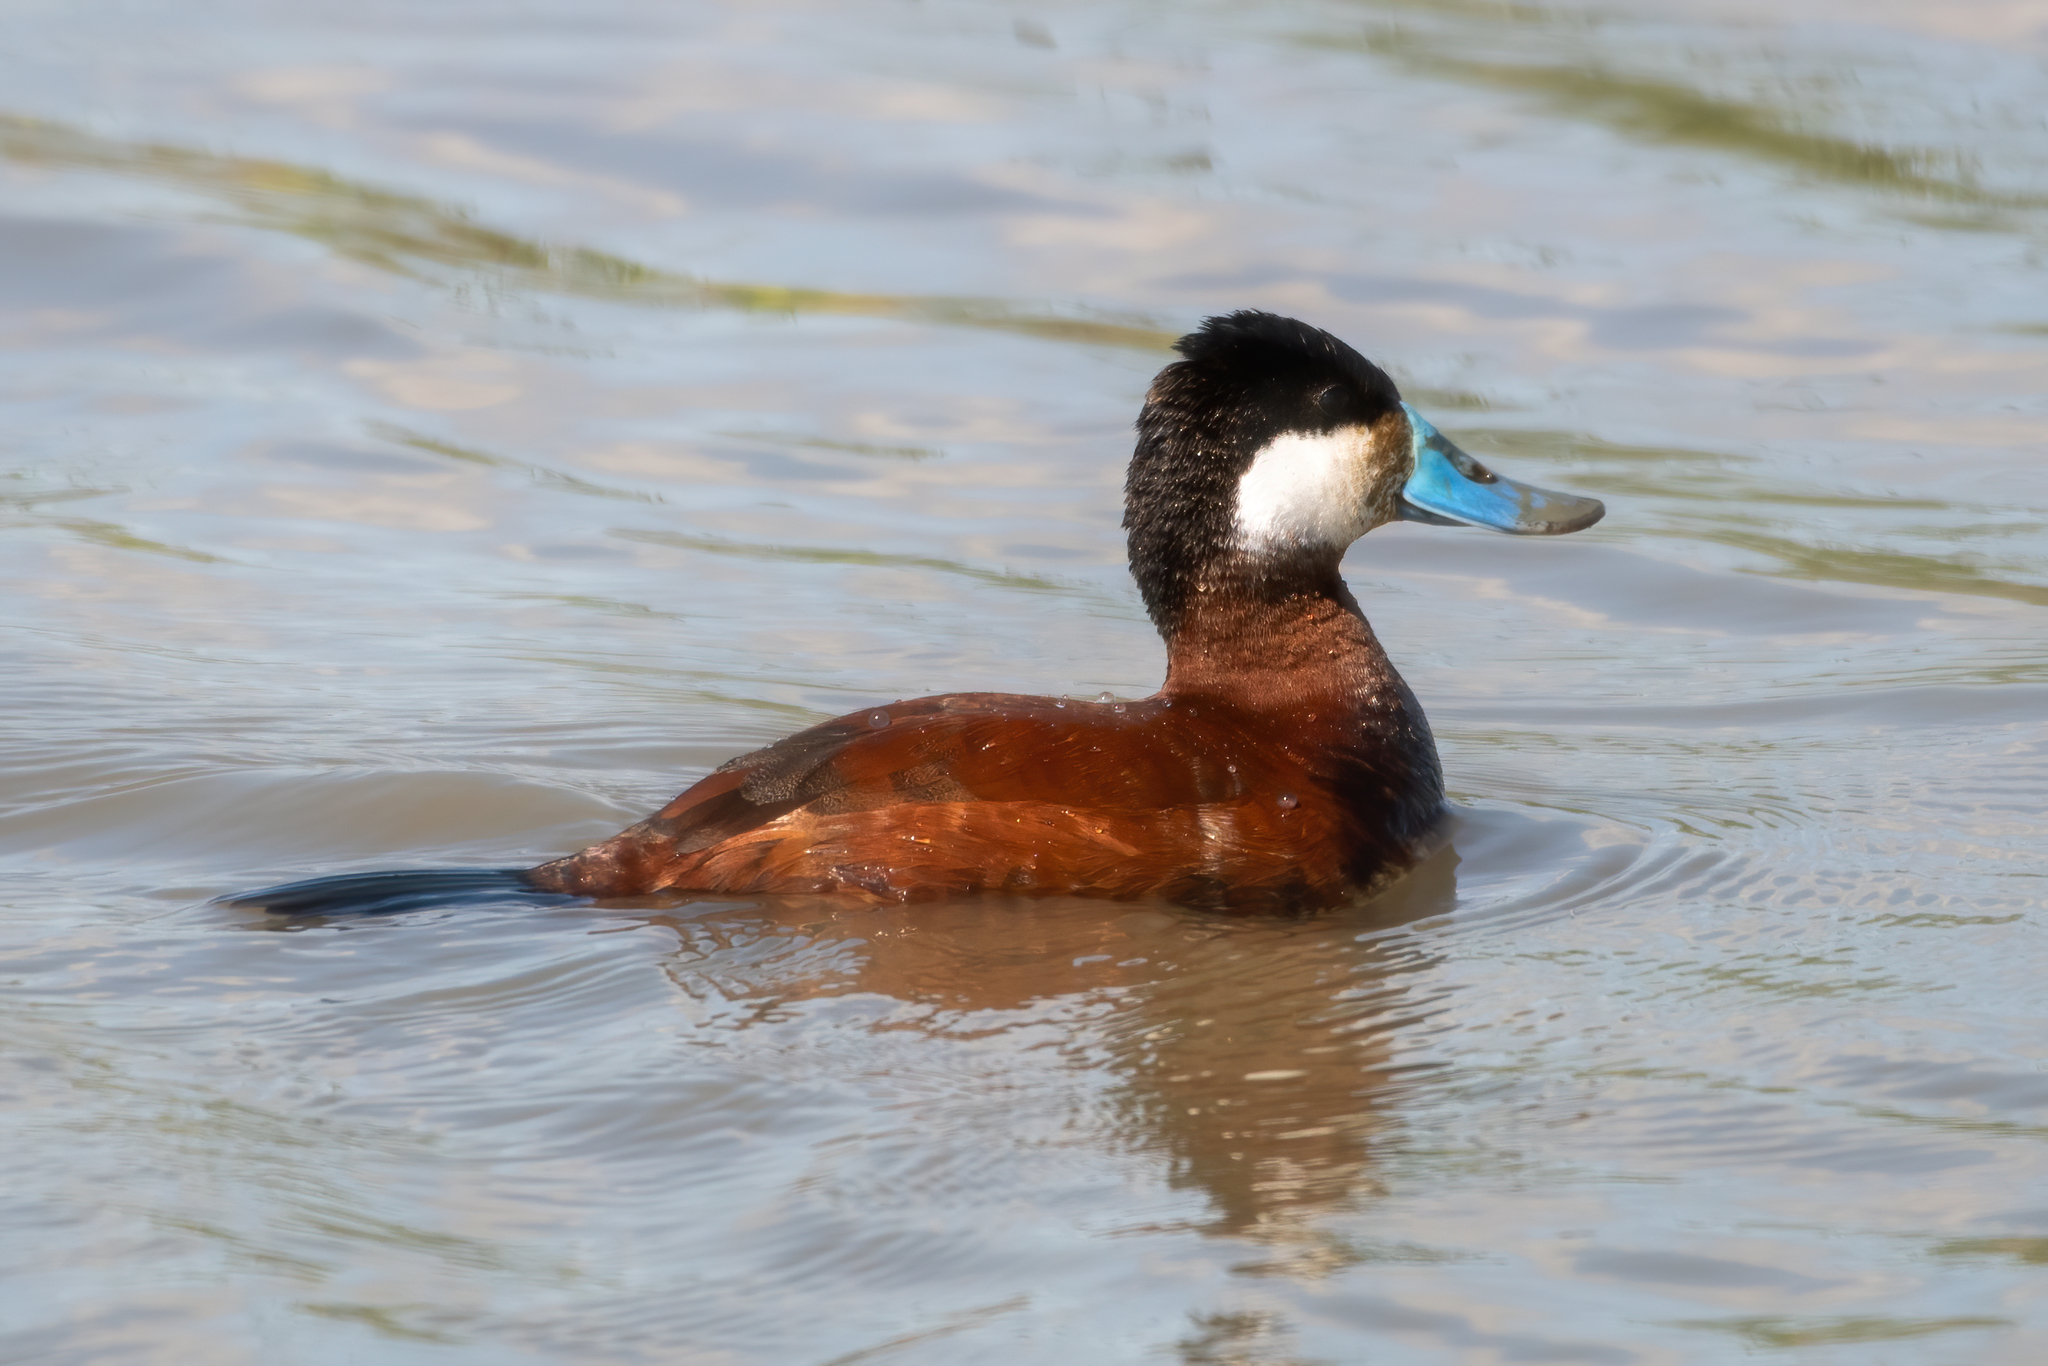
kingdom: Animalia
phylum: Chordata
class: Aves
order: Anseriformes
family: Anatidae
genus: Oxyura
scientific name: Oxyura jamaicensis
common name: Ruddy duck
